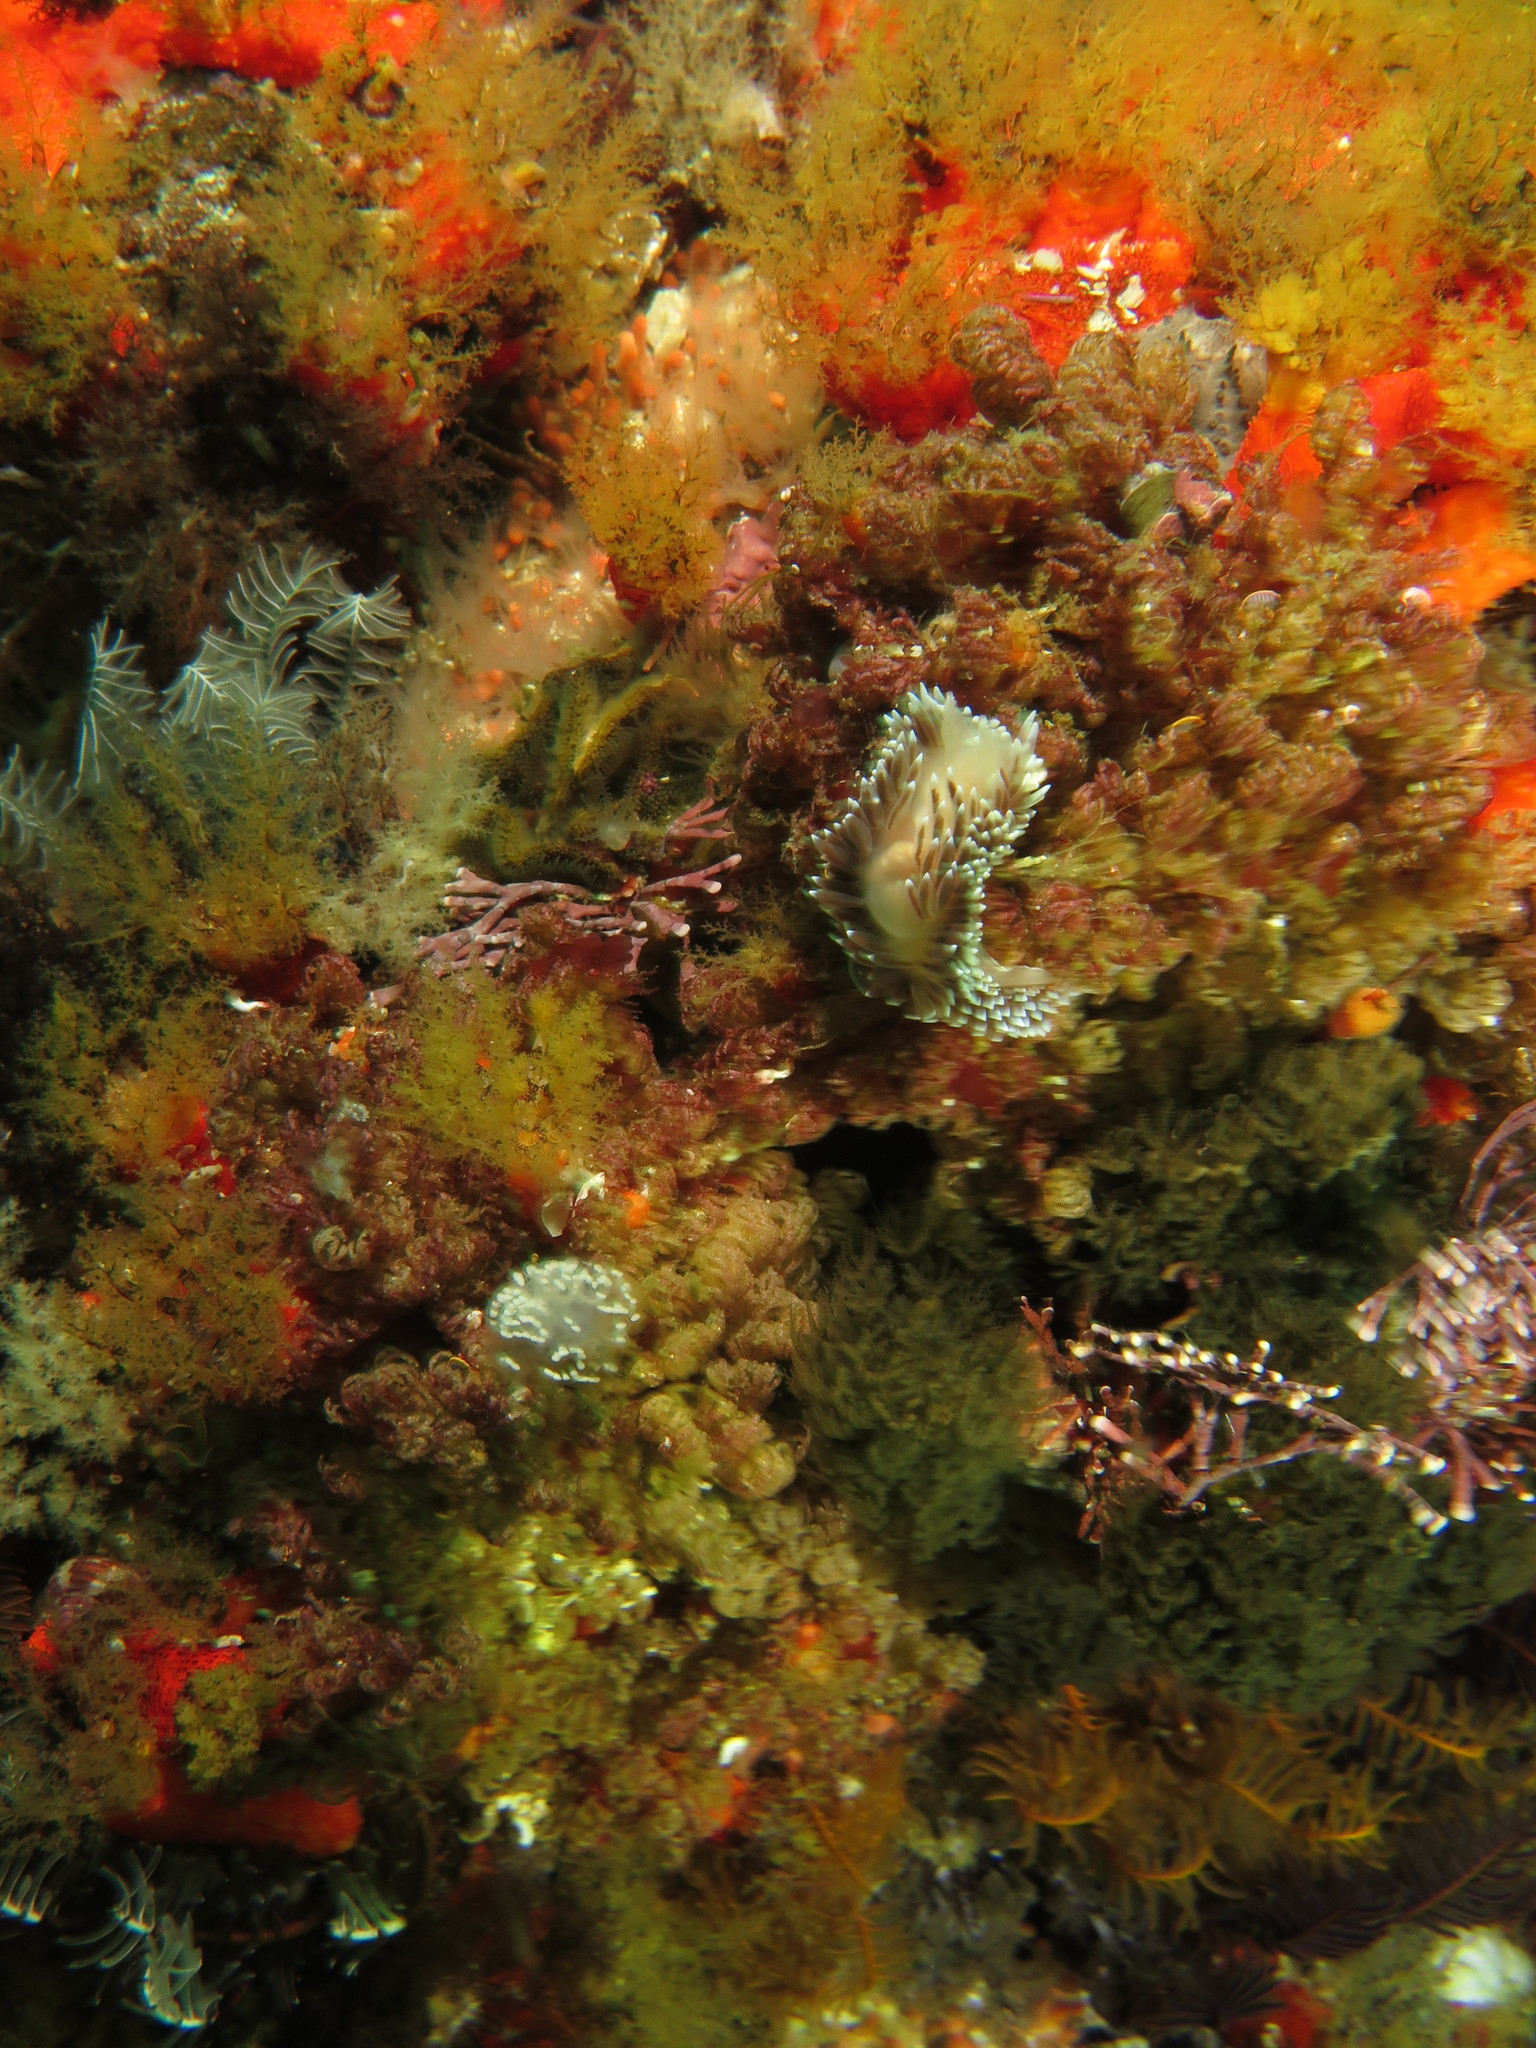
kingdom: Animalia
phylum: Mollusca
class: Gastropoda
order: Nudibranchia
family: Janolidae
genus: Antiopella
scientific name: Antiopella longidentata
